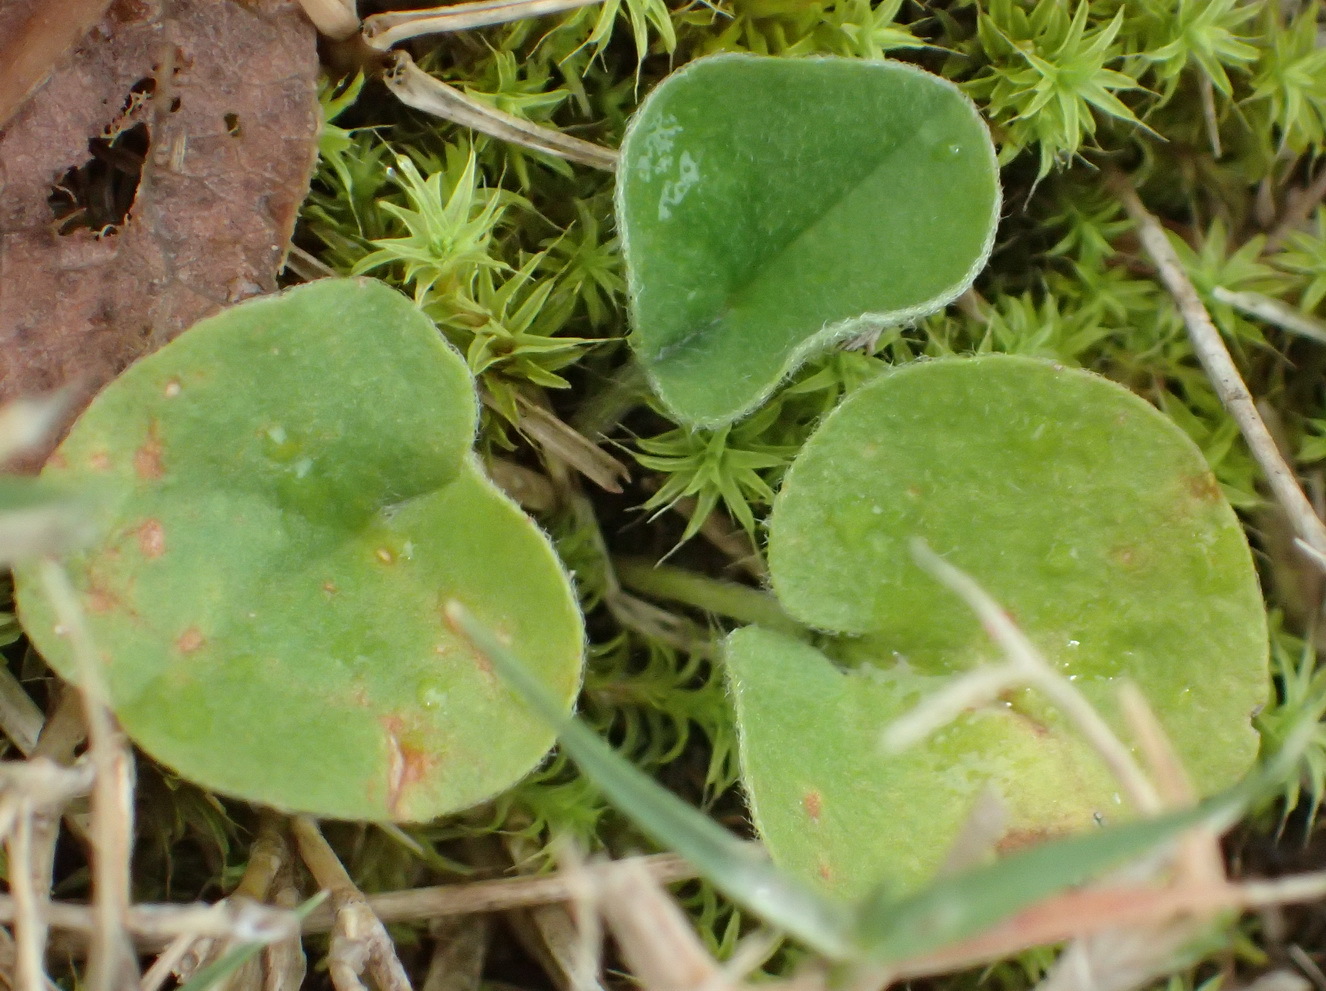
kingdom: Plantae
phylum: Tracheophyta
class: Magnoliopsida
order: Solanales
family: Convolvulaceae
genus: Dichondra
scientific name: Dichondra micrantha
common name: Kidneyweed
